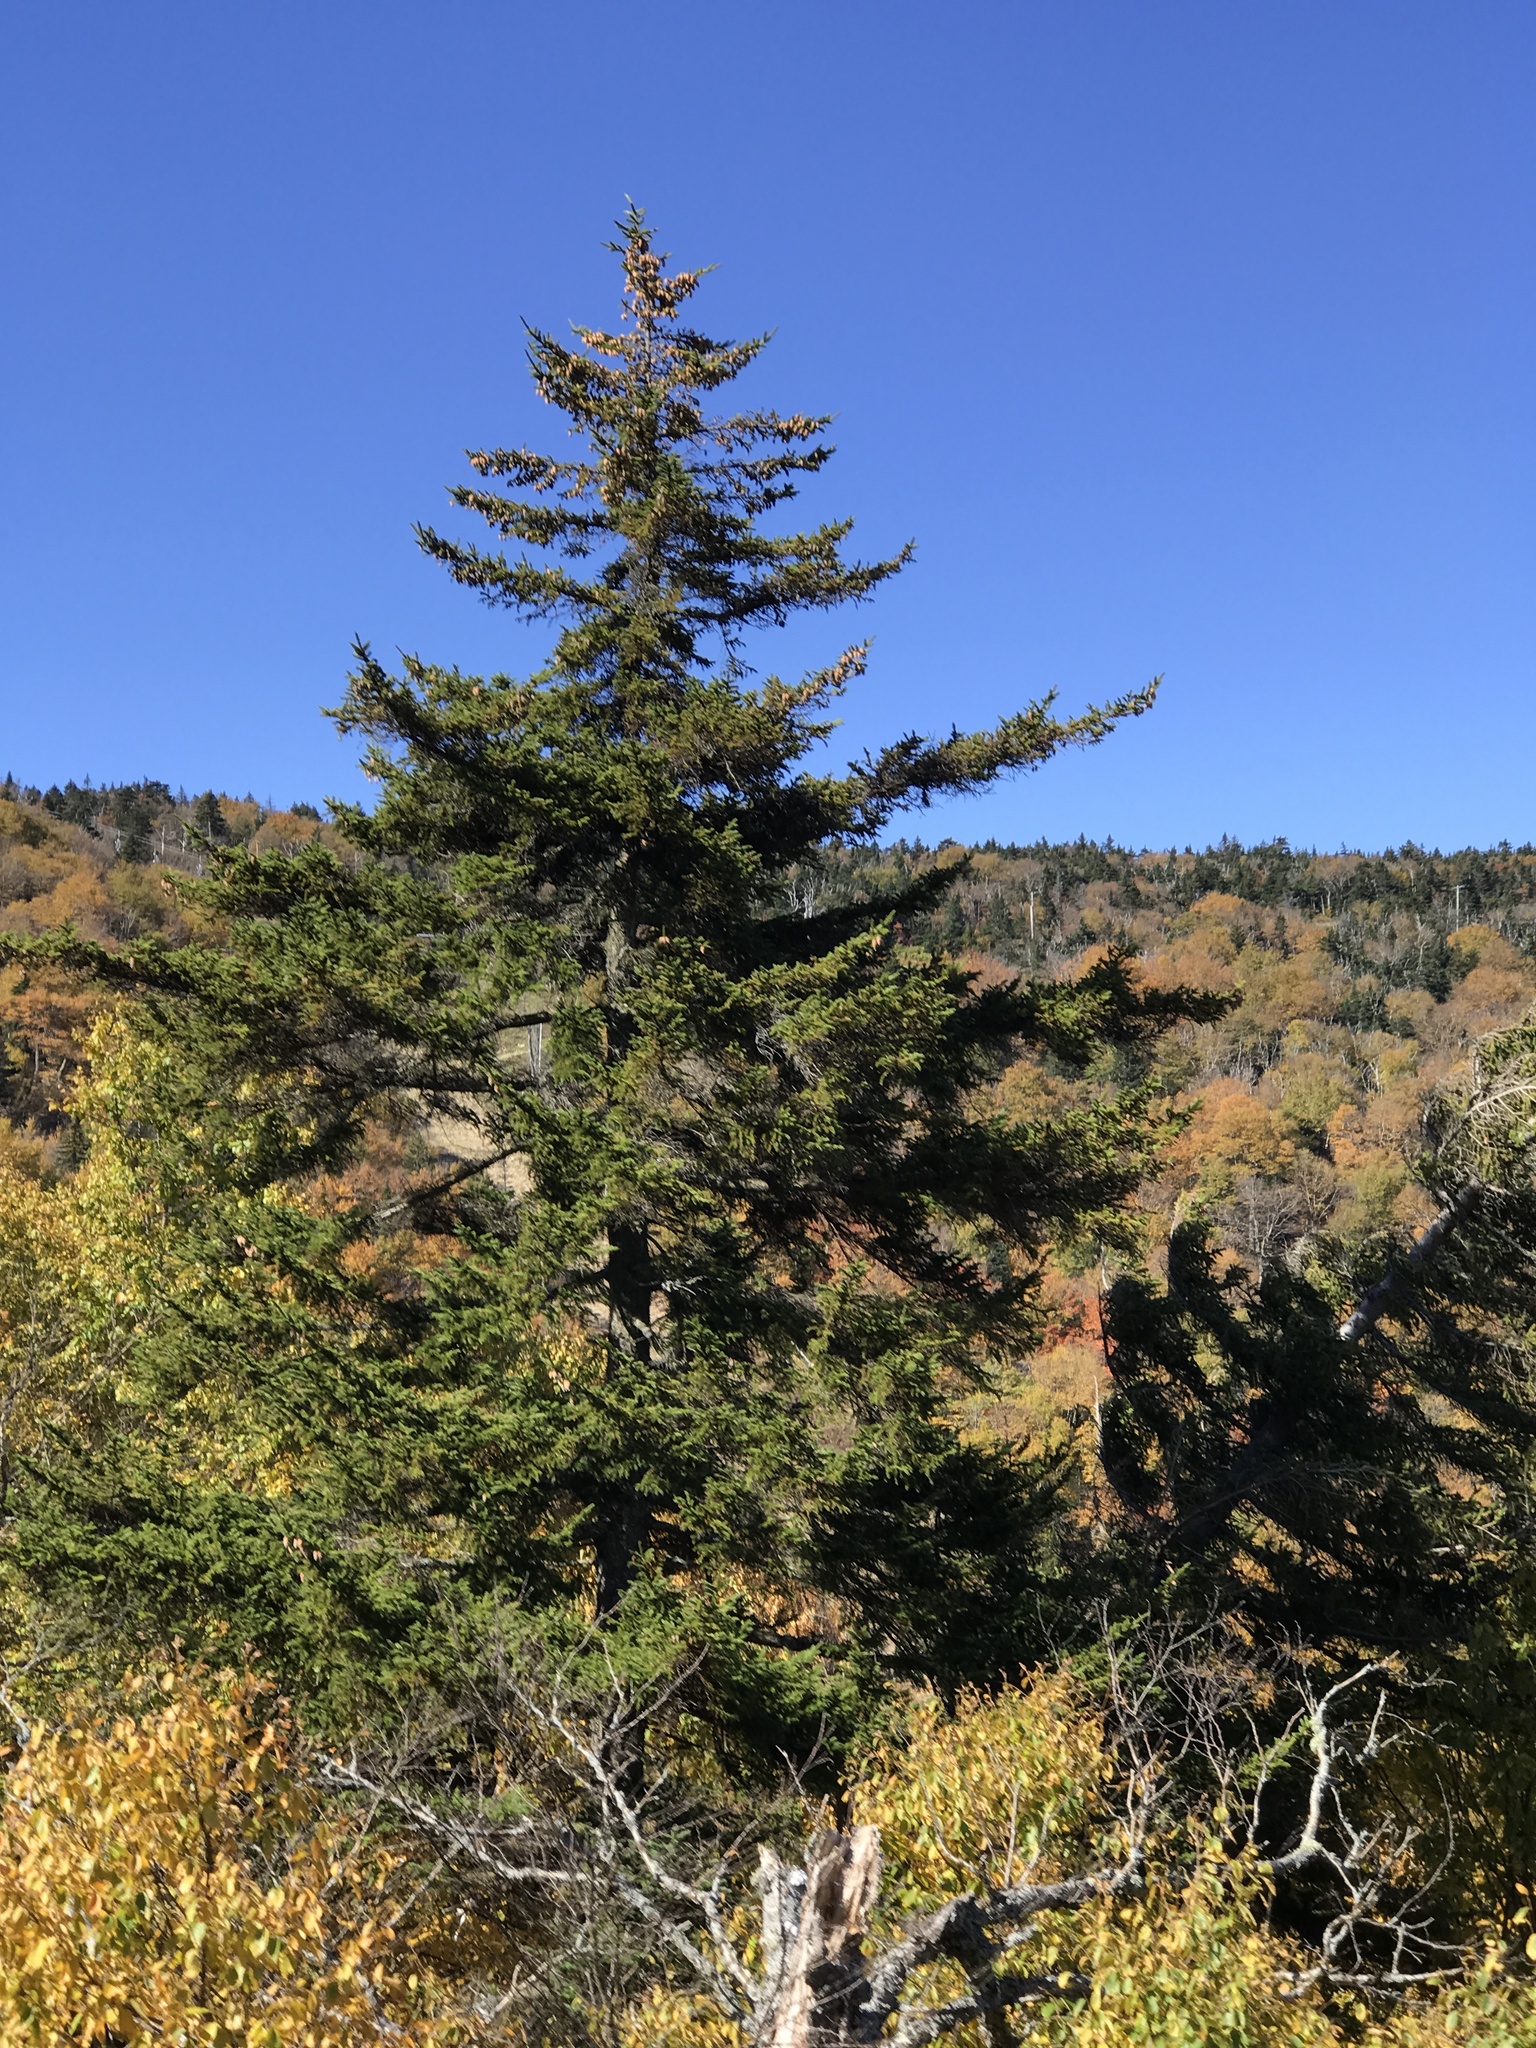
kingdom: Plantae
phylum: Tracheophyta
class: Pinopsida
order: Pinales
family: Pinaceae
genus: Picea
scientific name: Picea rubens
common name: Red spruce
